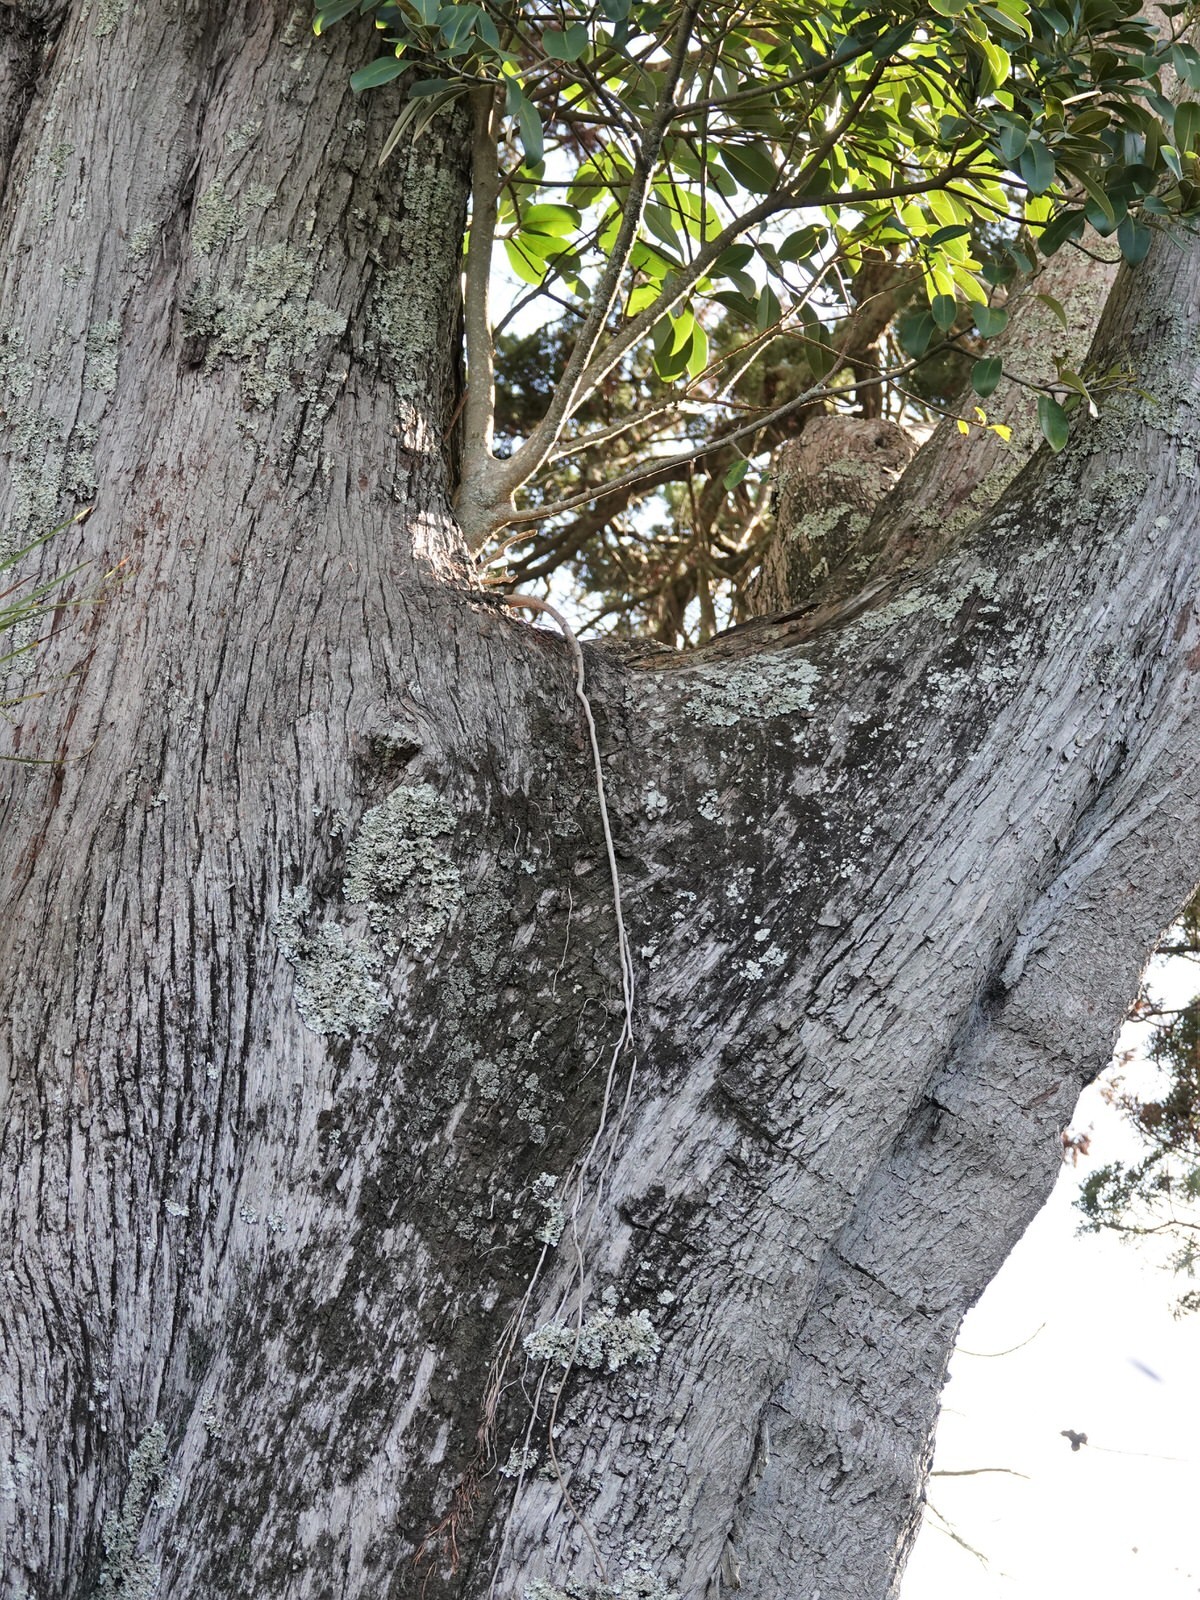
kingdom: Plantae
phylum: Tracheophyta
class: Magnoliopsida
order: Rosales
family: Moraceae
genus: Ficus
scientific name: Ficus macrophylla
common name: Moreton bay fig
